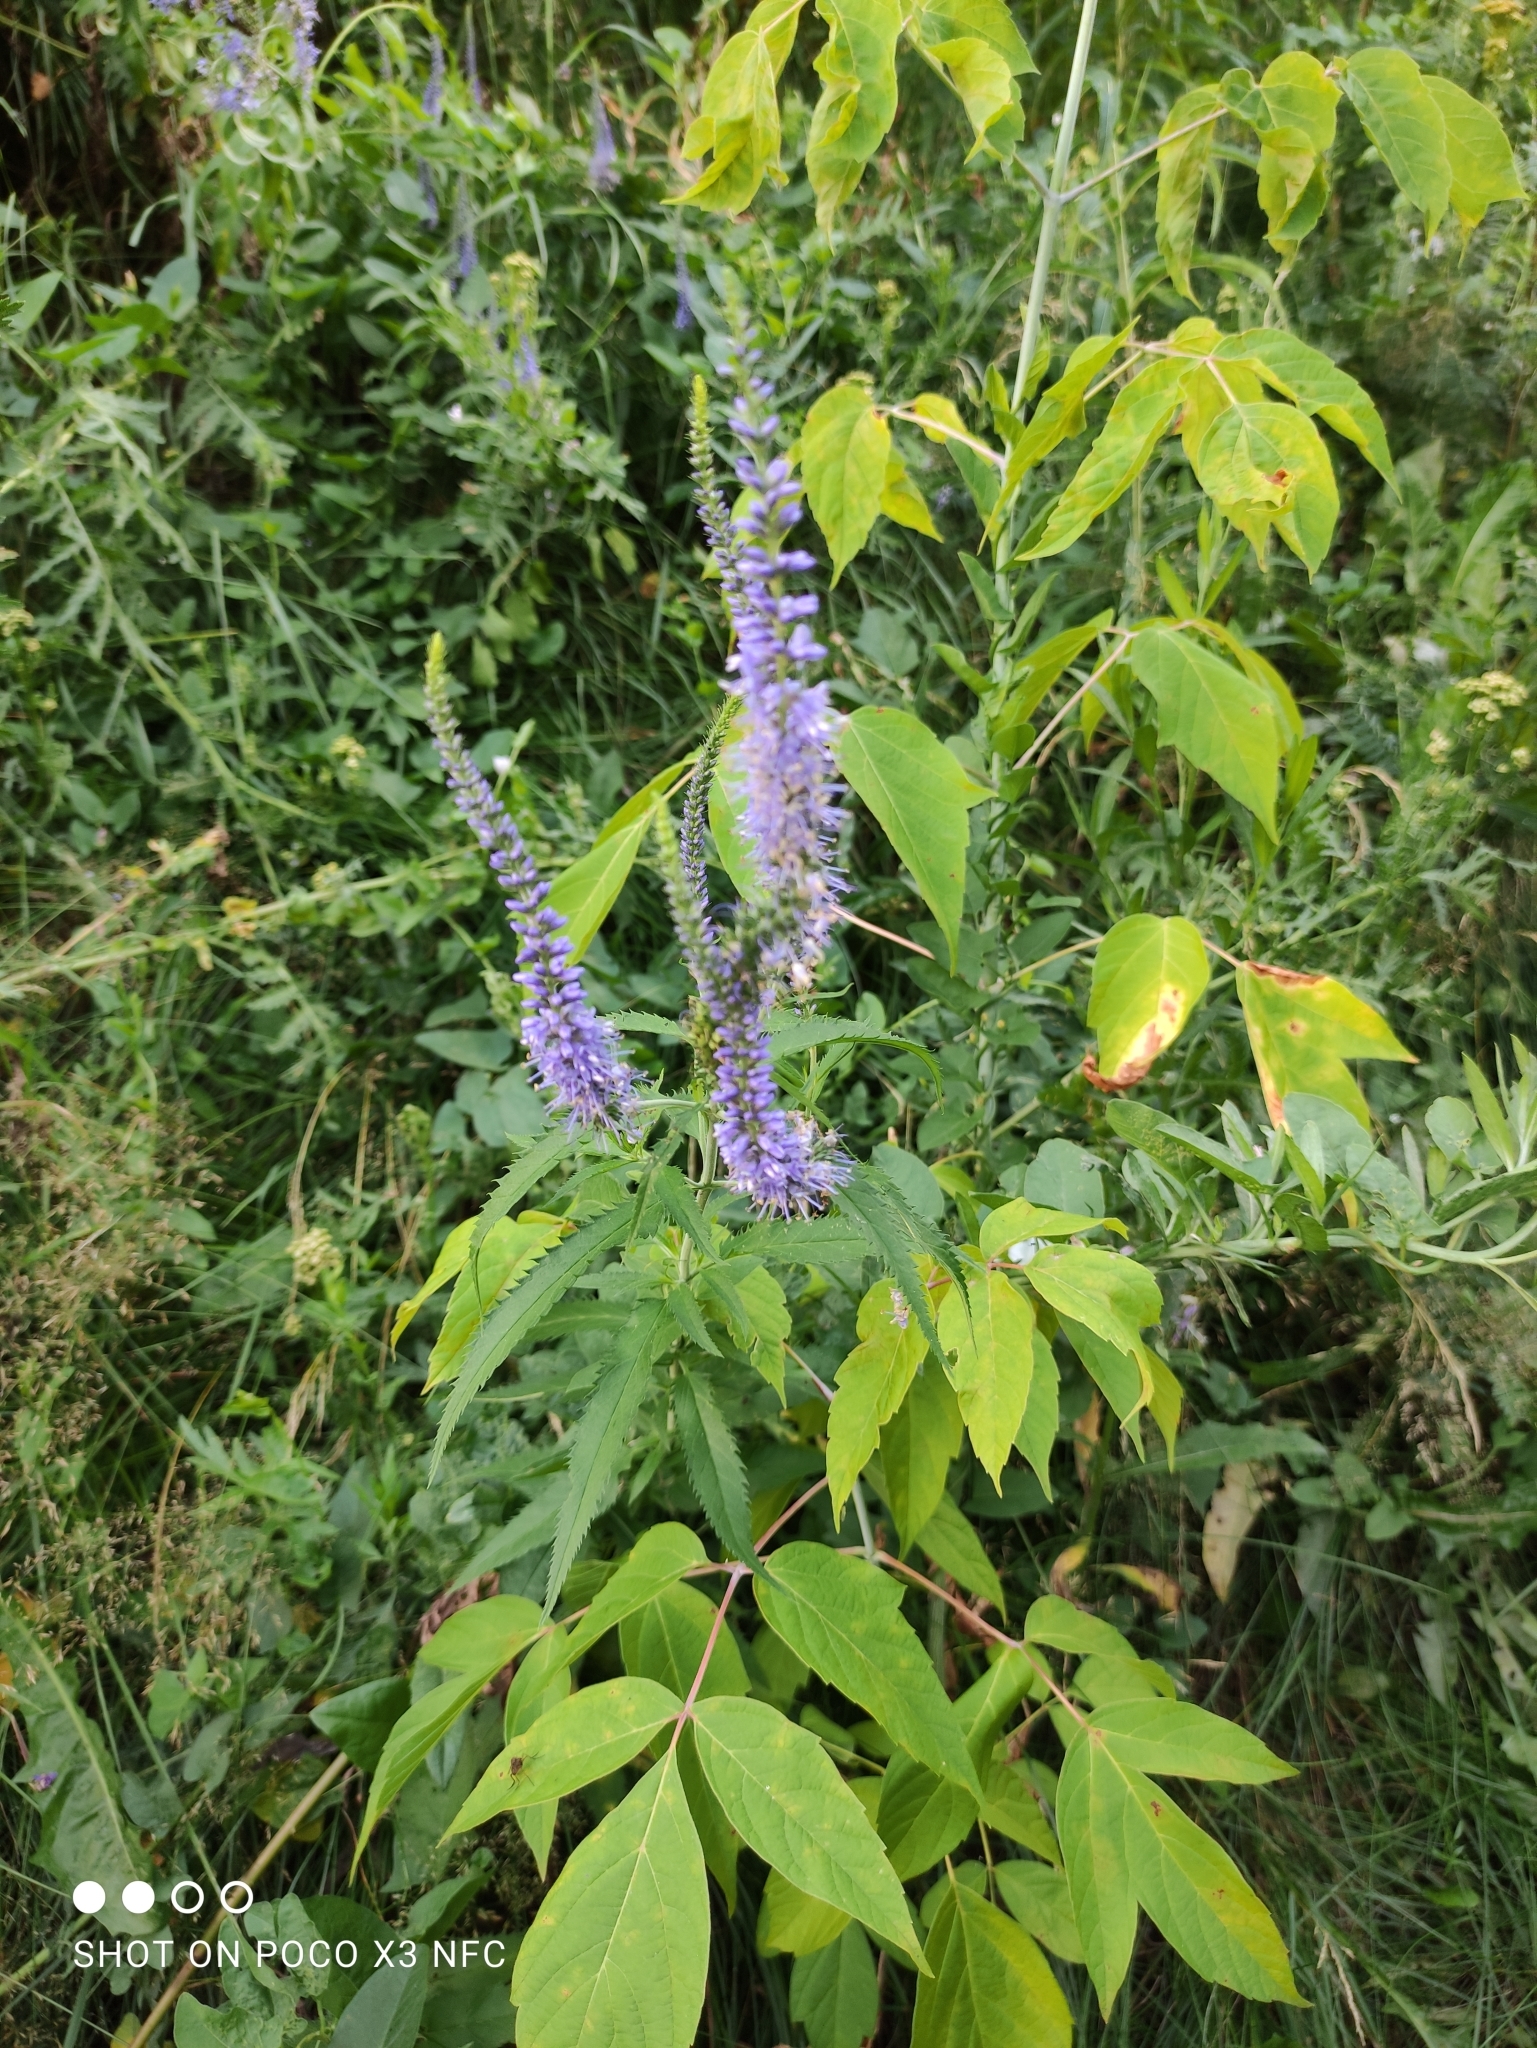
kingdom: Plantae
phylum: Tracheophyta
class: Magnoliopsida
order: Lamiales
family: Plantaginaceae
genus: Veronica
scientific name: Veronica longifolia
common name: Garden speedwell
